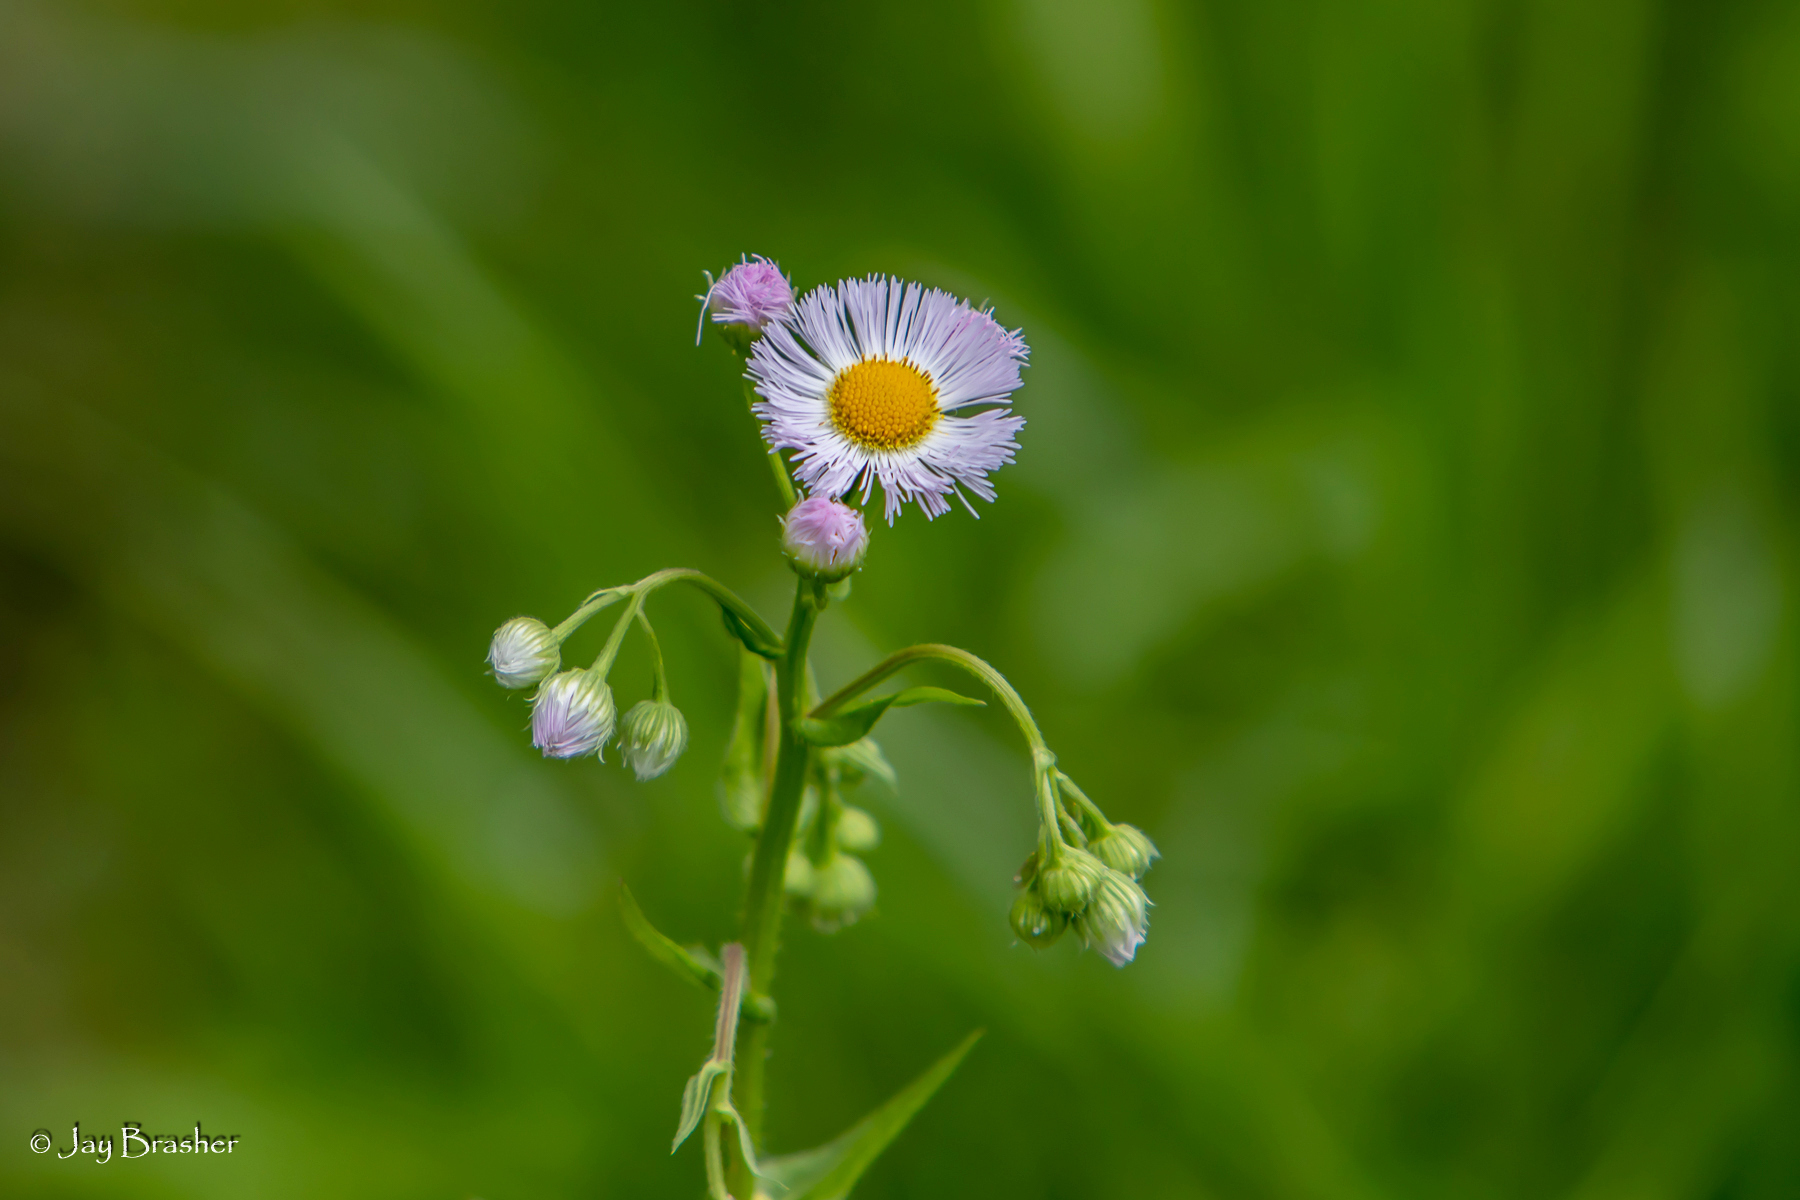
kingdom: Plantae
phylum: Tracheophyta
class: Magnoliopsida
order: Asterales
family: Asteraceae
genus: Erigeron
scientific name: Erigeron philadelphicus
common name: Robin's-plantain
